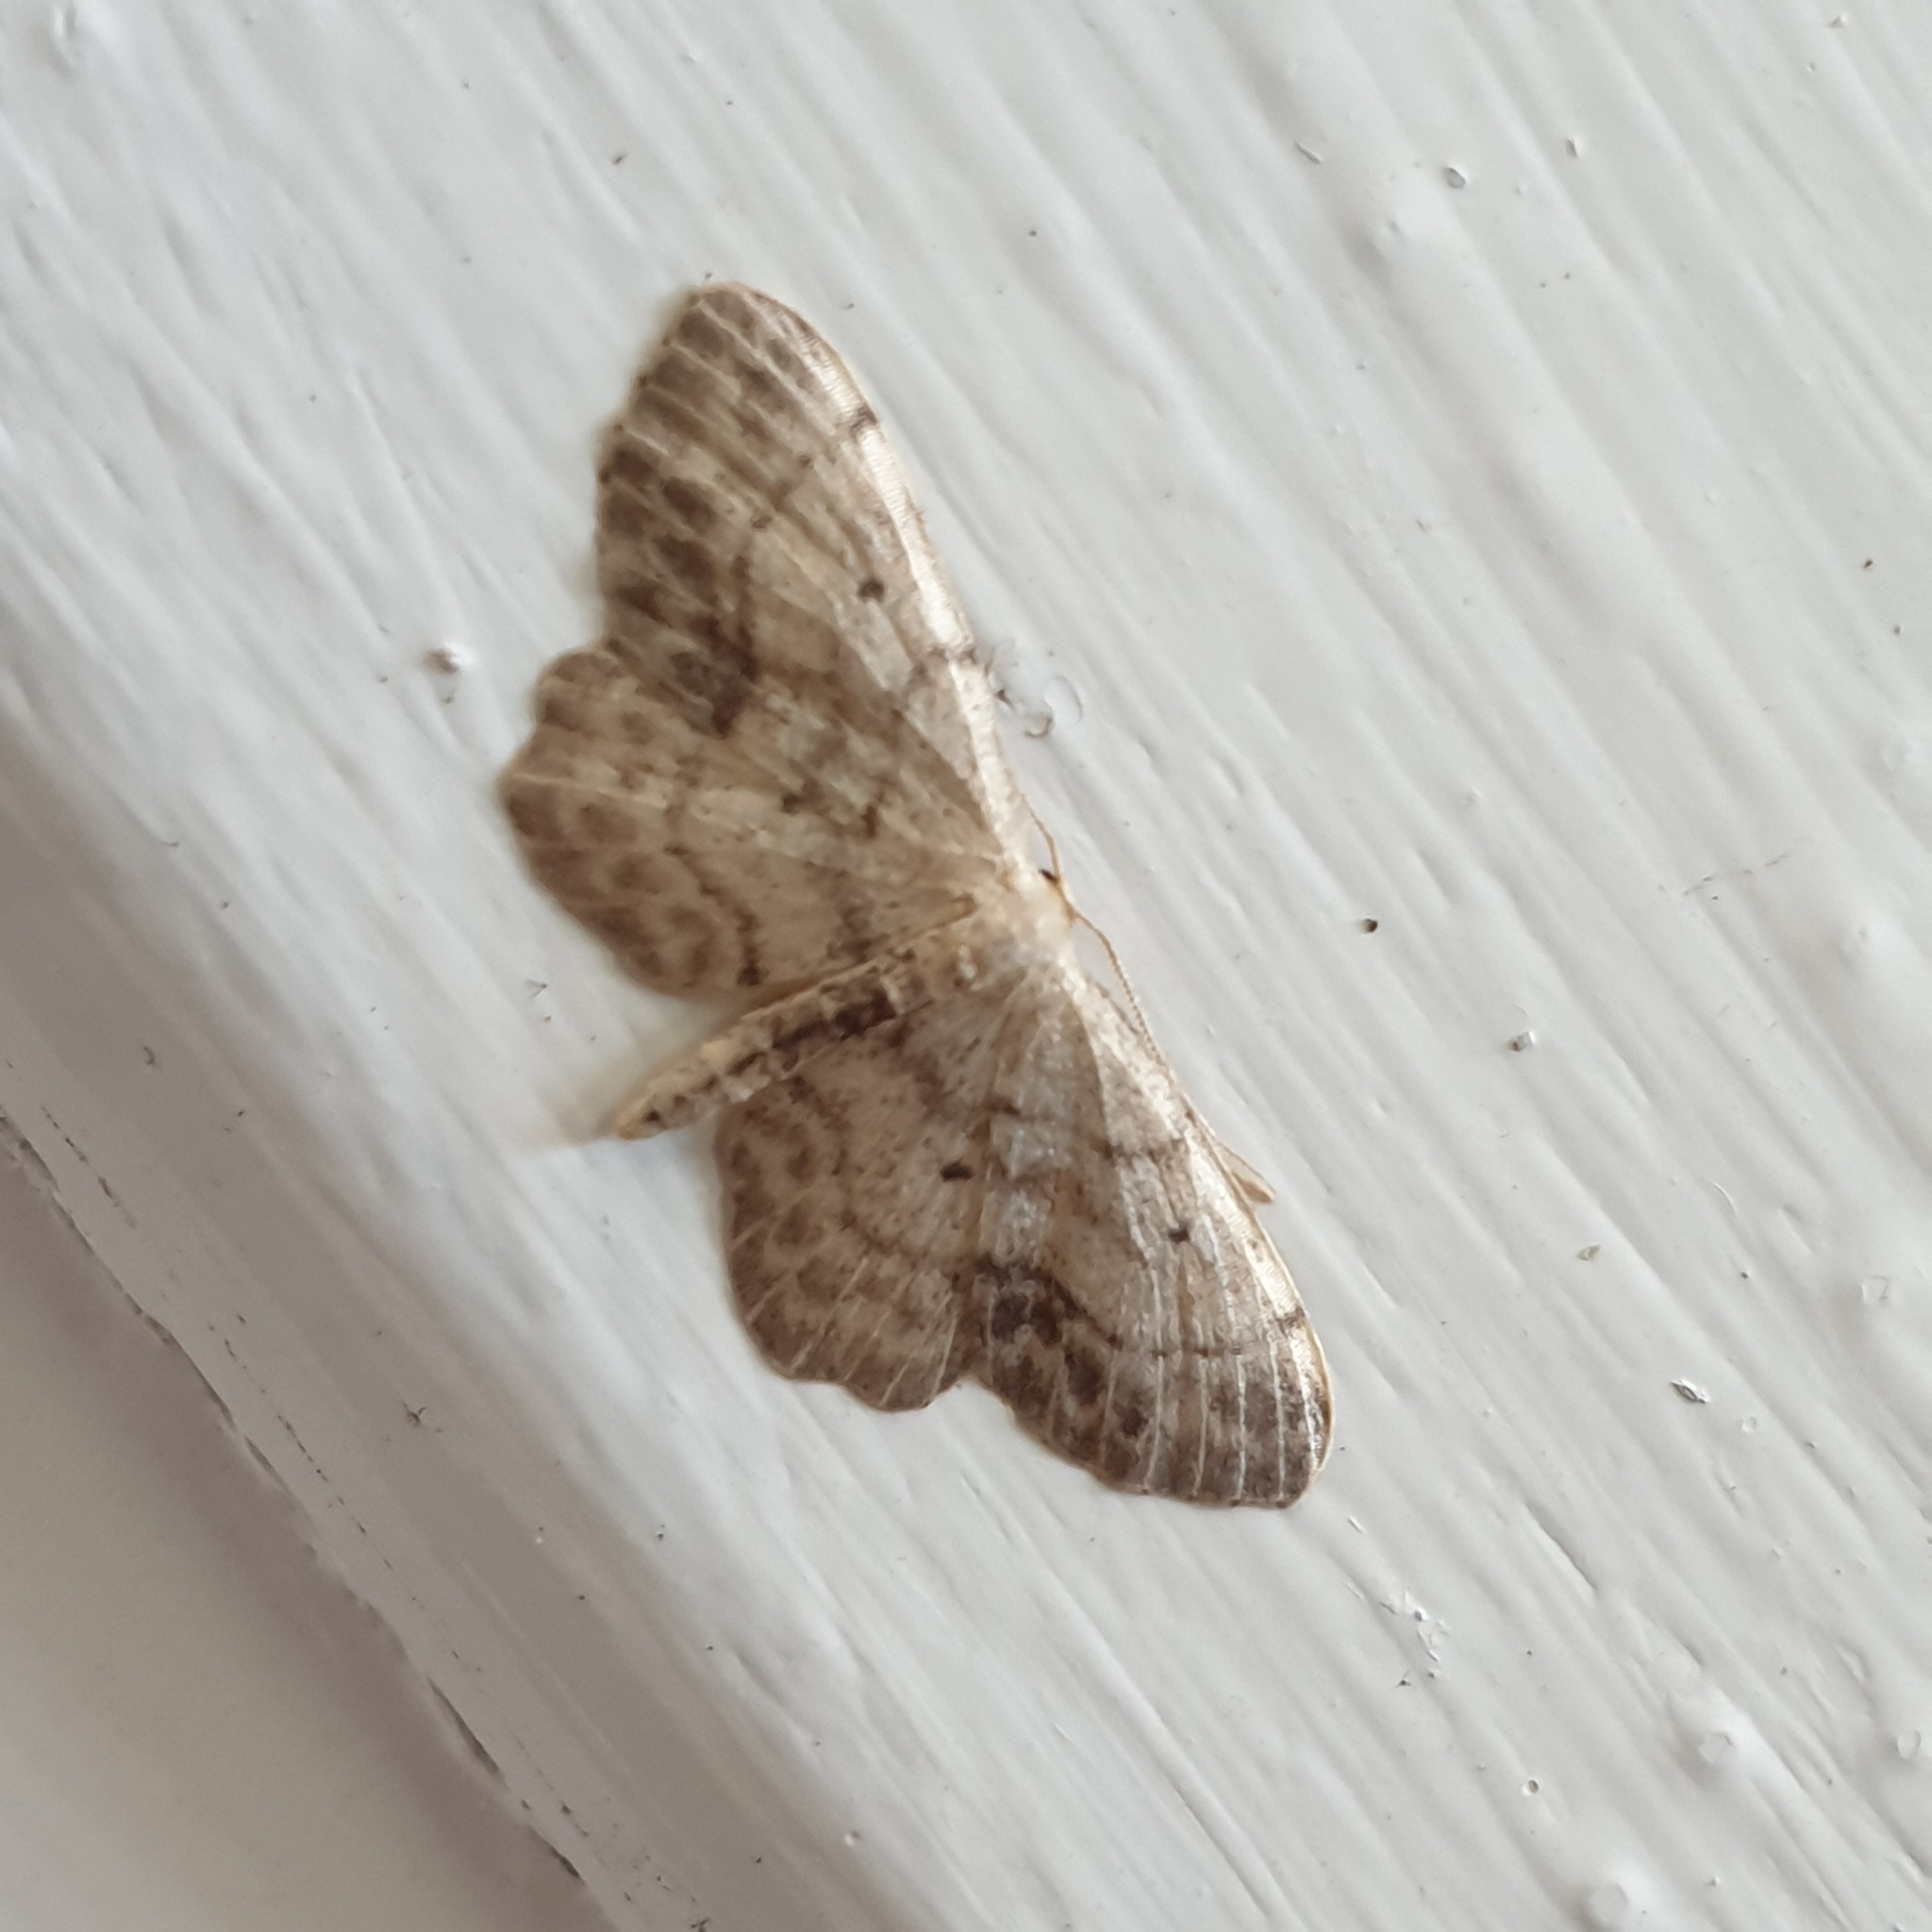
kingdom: Animalia
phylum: Arthropoda
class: Insecta
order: Lepidoptera
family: Geometridae
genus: Idaea
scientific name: Idaea dimidiata
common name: Single-dotted wave
